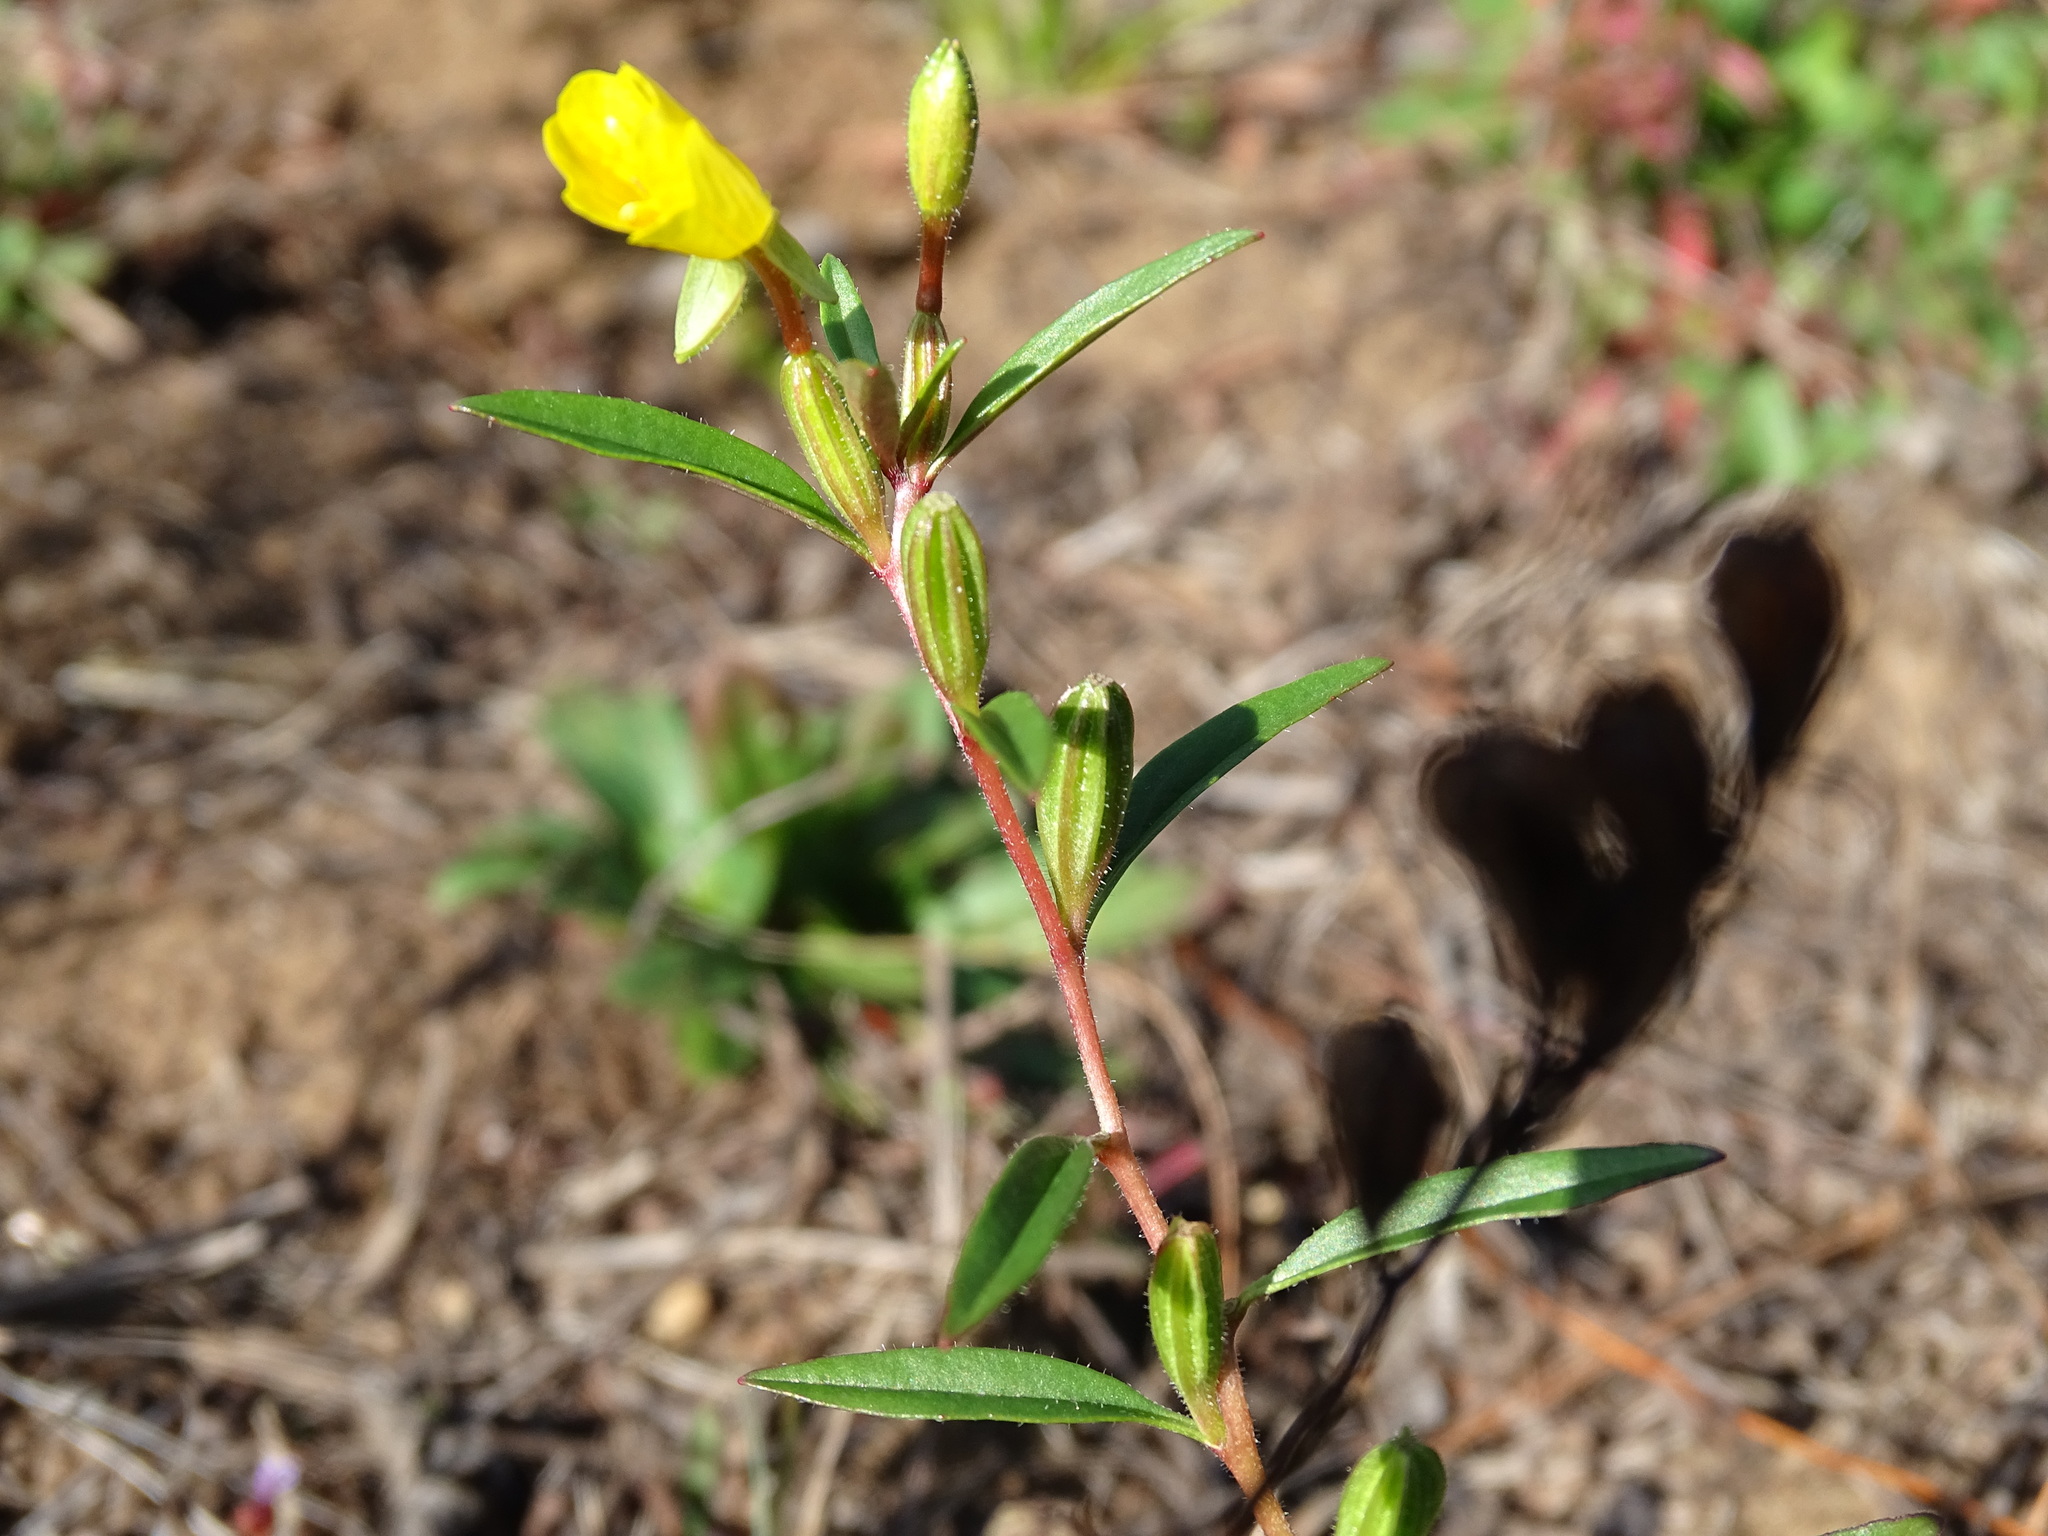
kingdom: Plantae
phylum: Tracheophyta
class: Magnoliopsida
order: Myrtales
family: Onagraceae
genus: Oenothera
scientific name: Oenothera perennis
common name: Small sundrops
